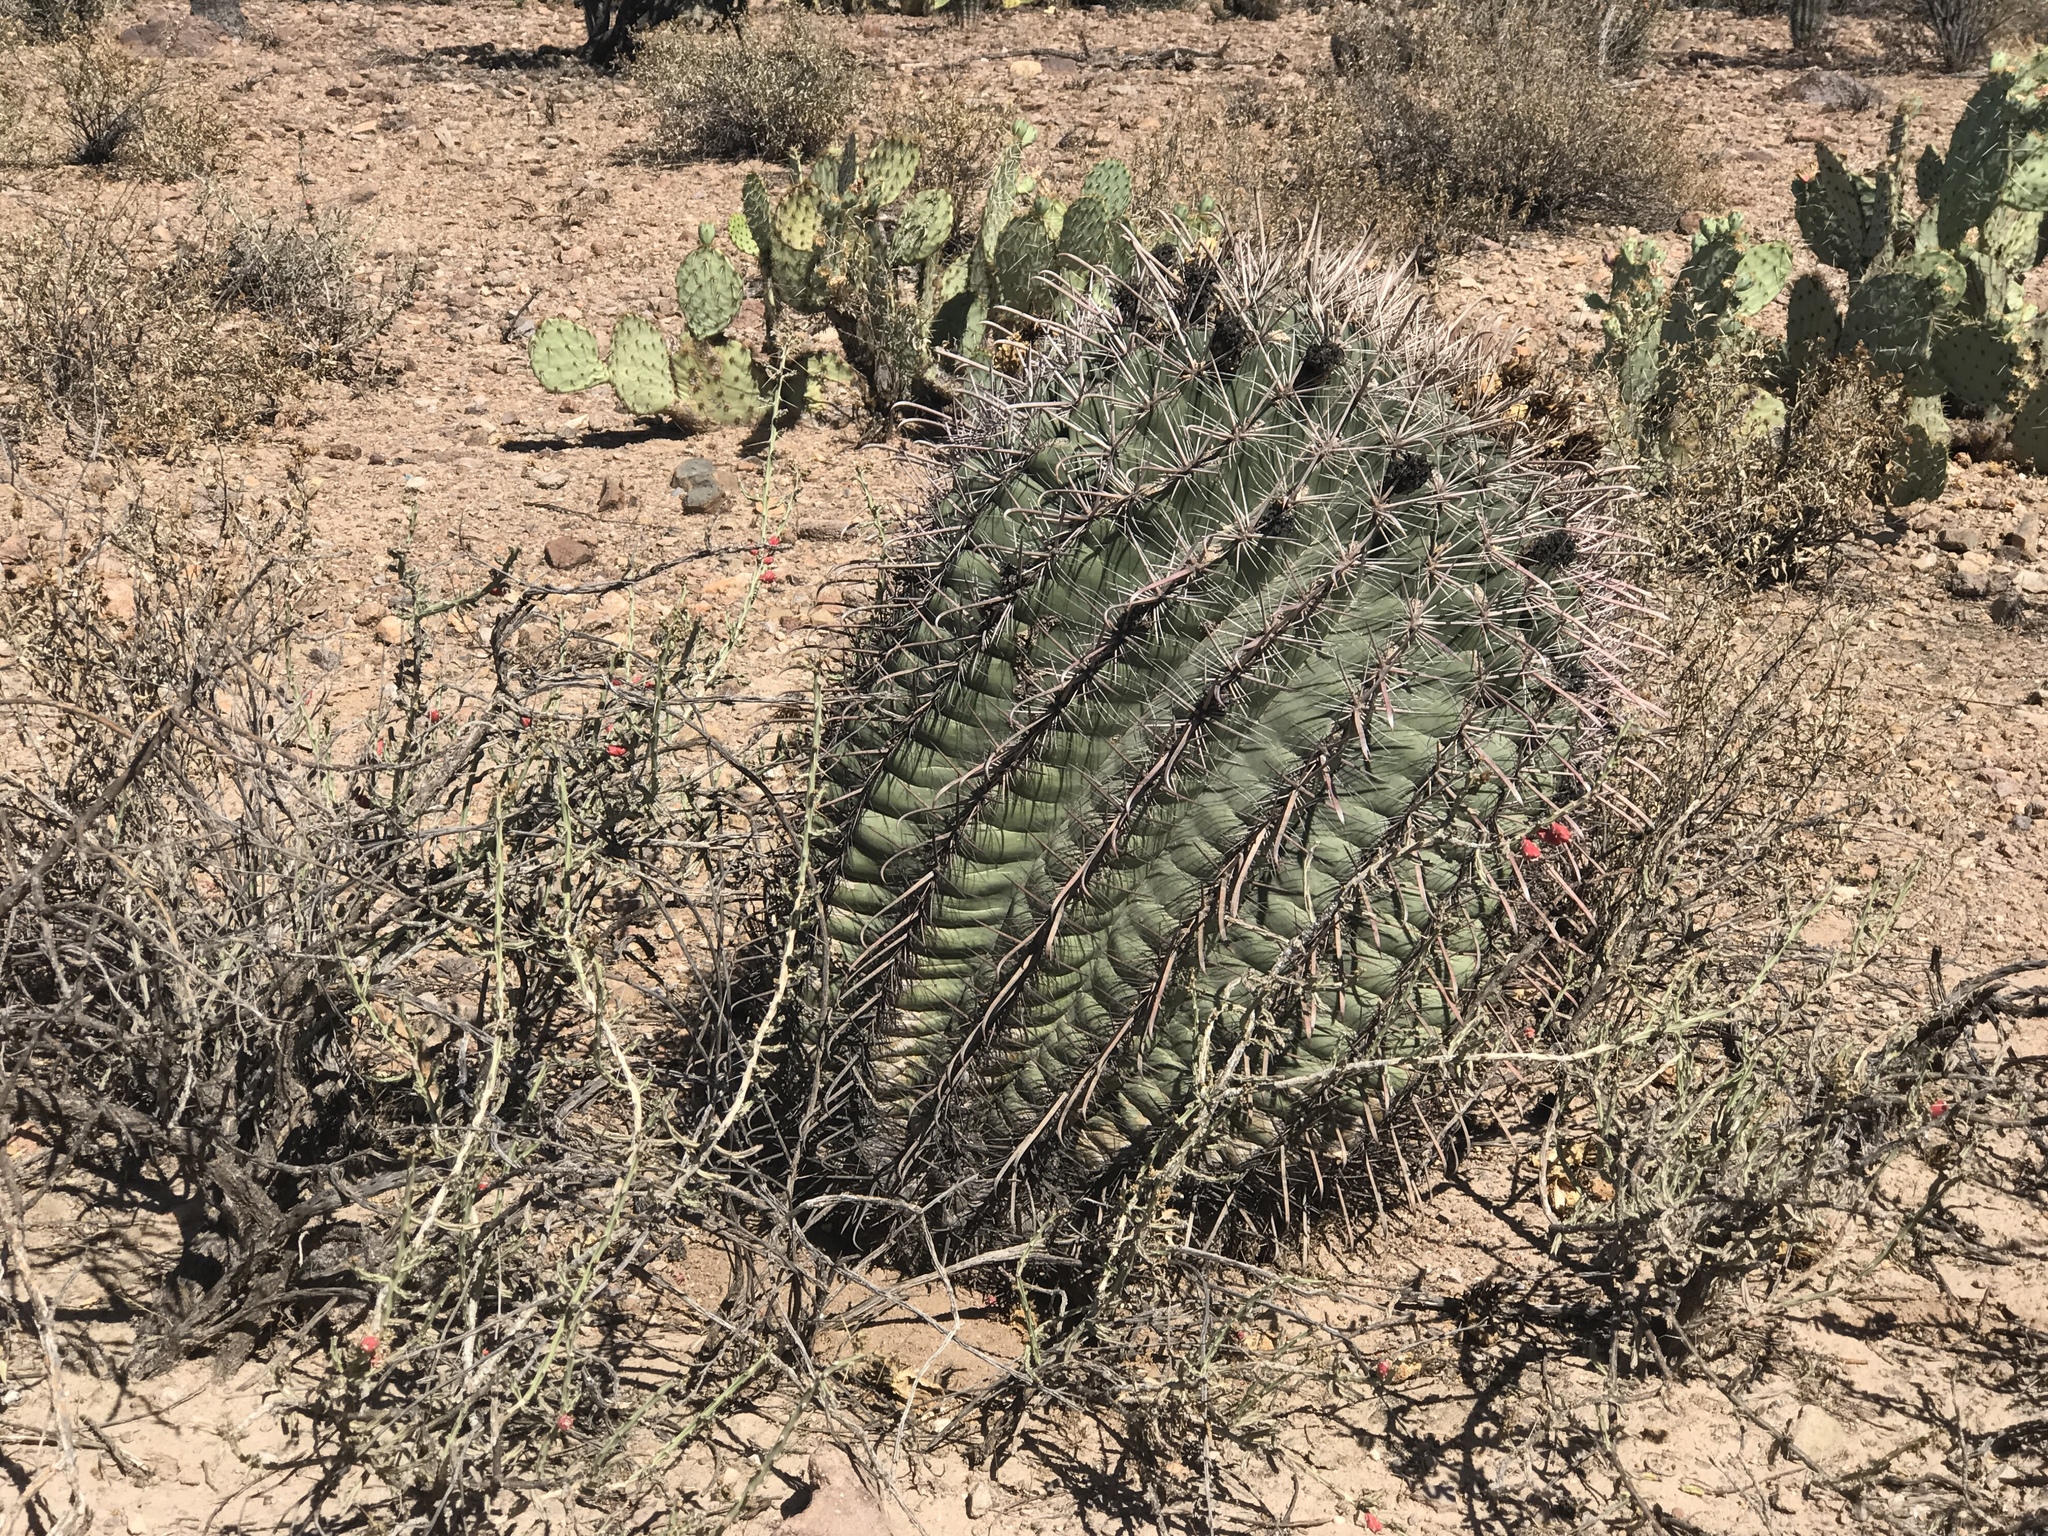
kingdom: Plantae
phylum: Tracheophyta
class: Magnoliopsida
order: Caryophyllales
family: Cactaceae
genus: Ferocactus
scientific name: Ferocactus wislizeni
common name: Candy barrel cactus
